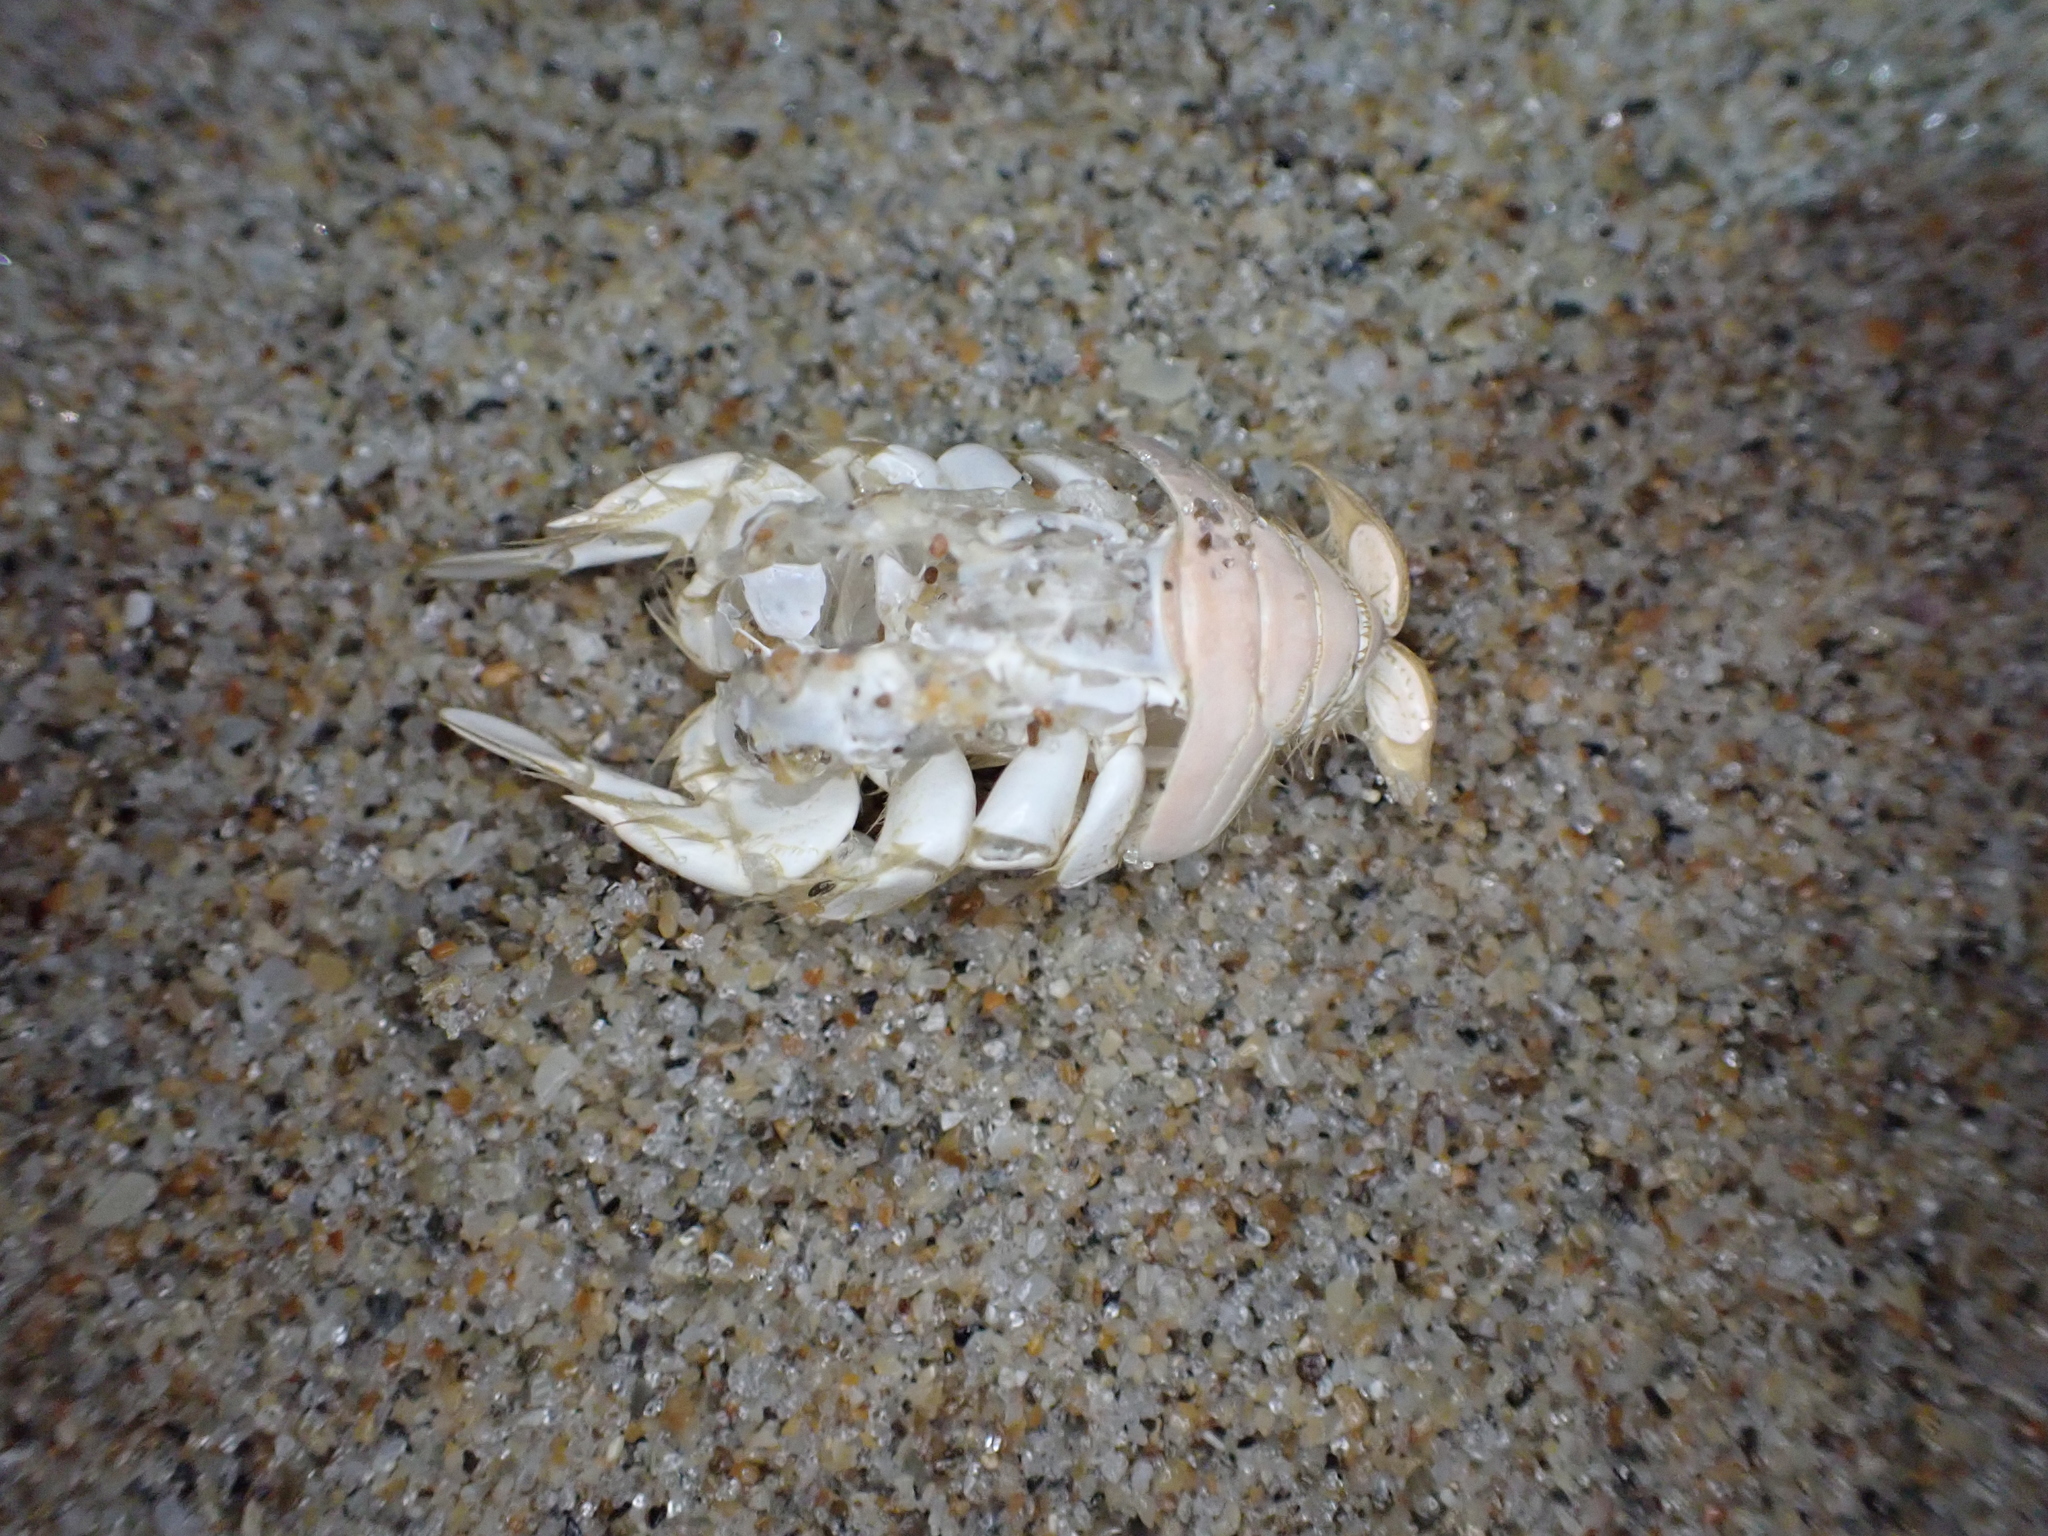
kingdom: Animalia
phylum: Arthropoda
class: Malacostraca
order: Decapoda
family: Hippidae
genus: Emerita
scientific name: Emerita talpoida
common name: Atlantic sand crab
